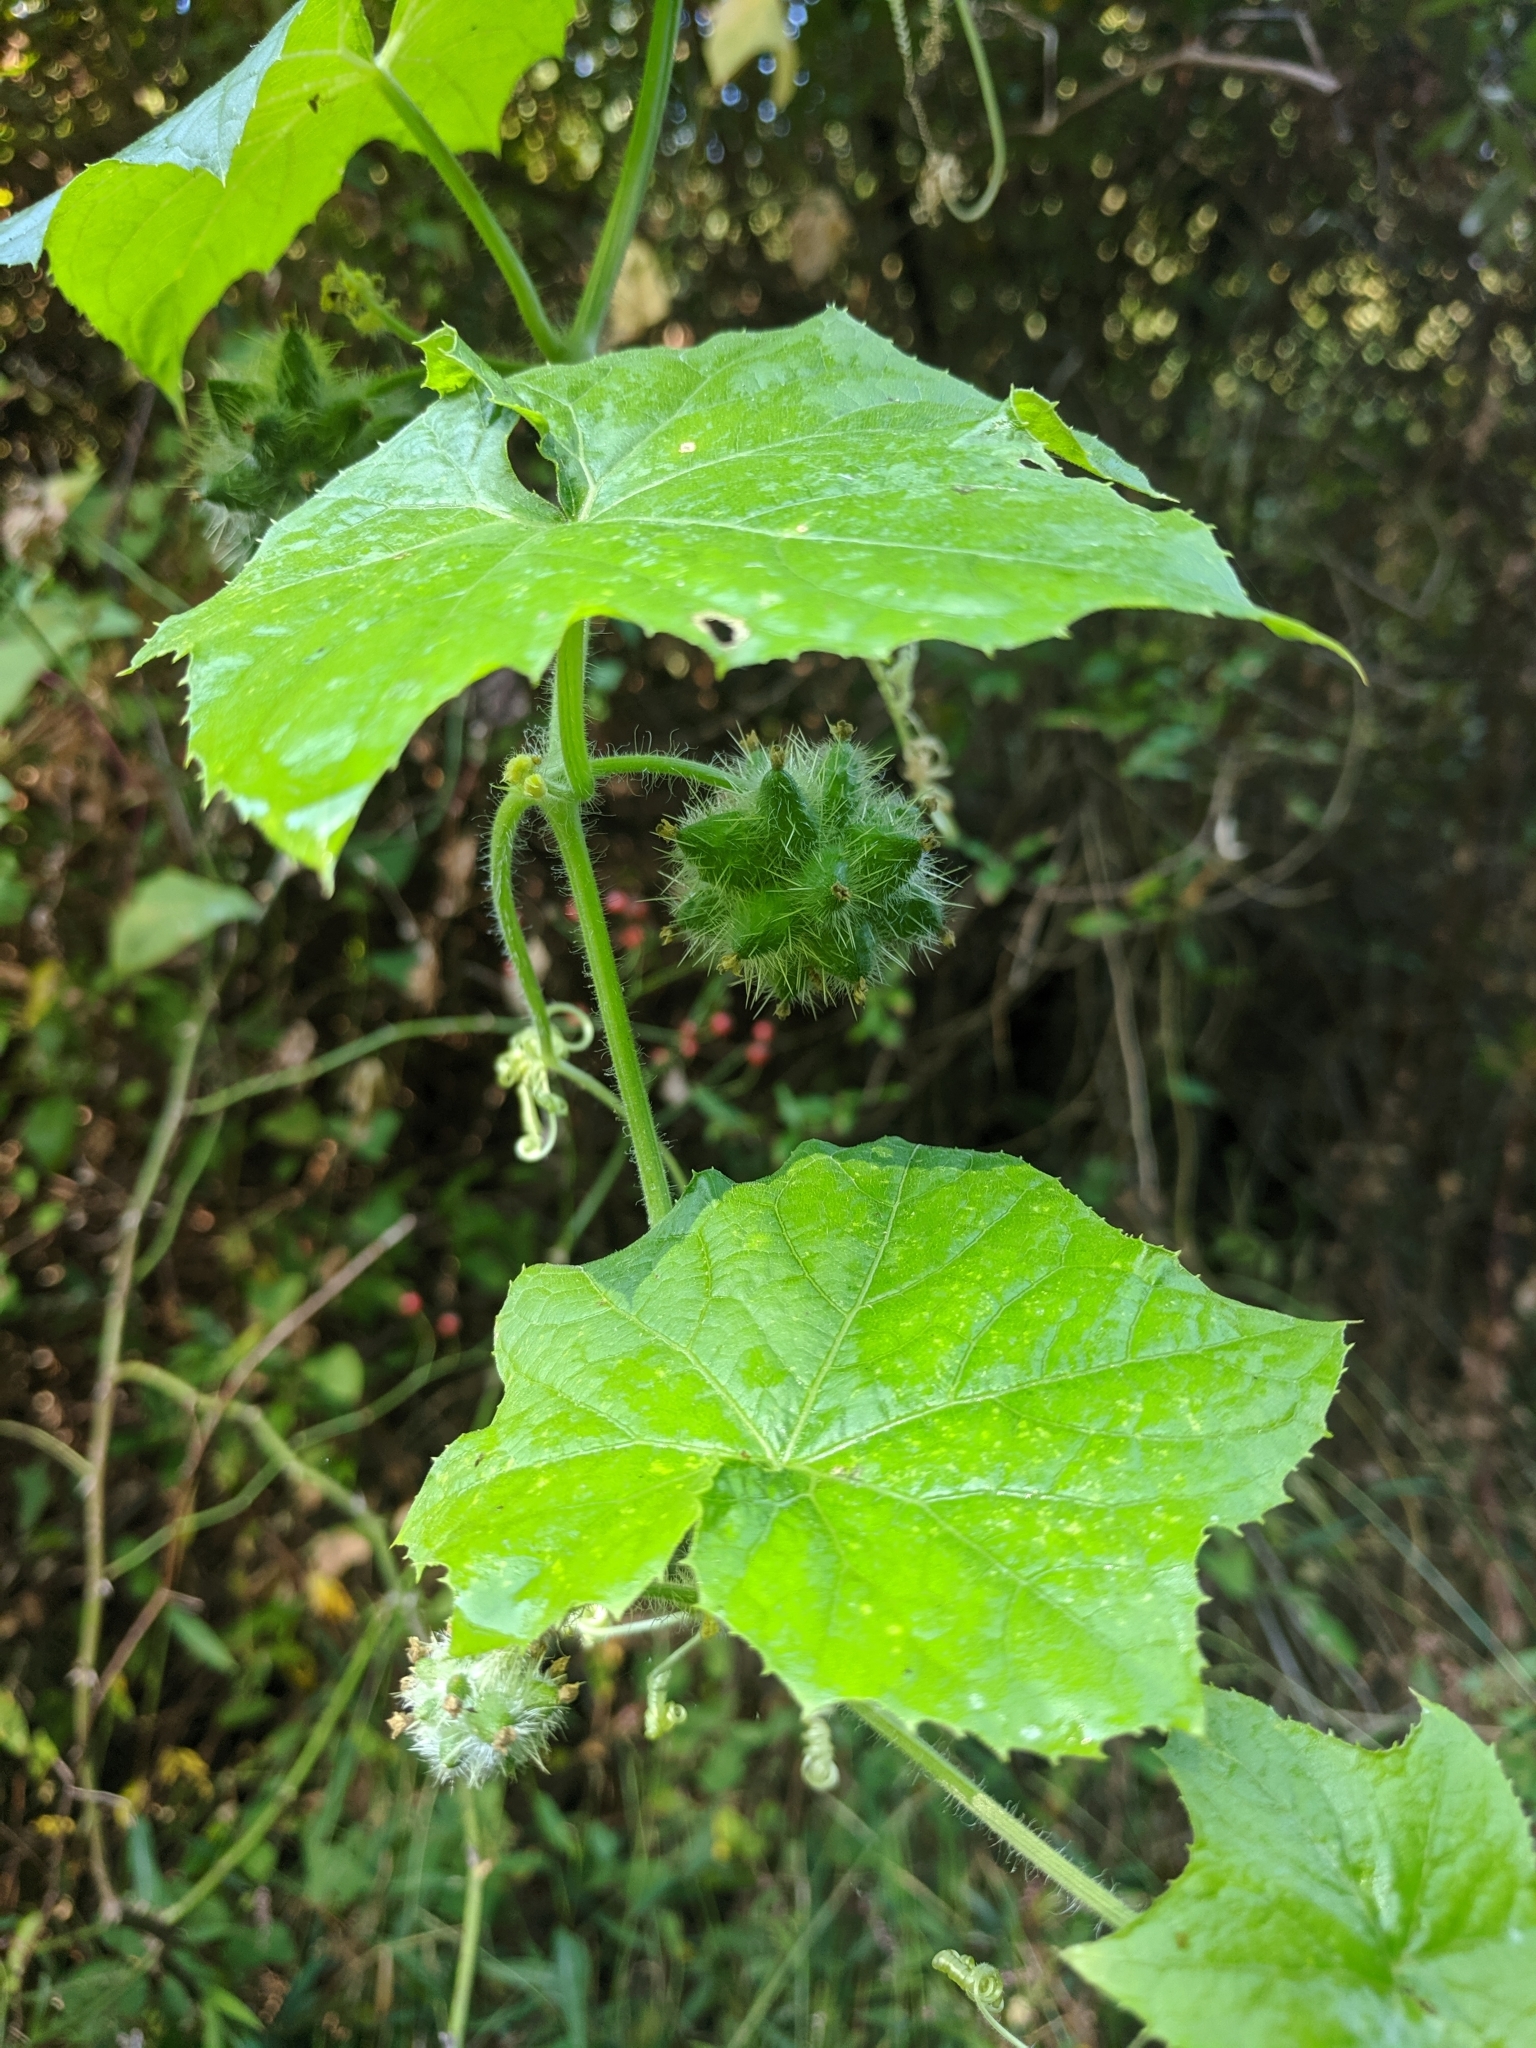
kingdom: Plantae
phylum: Tracheophyta
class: Magnoliopsida
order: Cucurbitales
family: Cucurbitaceae
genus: Sicyos
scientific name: Sicyos angulatus
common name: Angled burr cucumber
